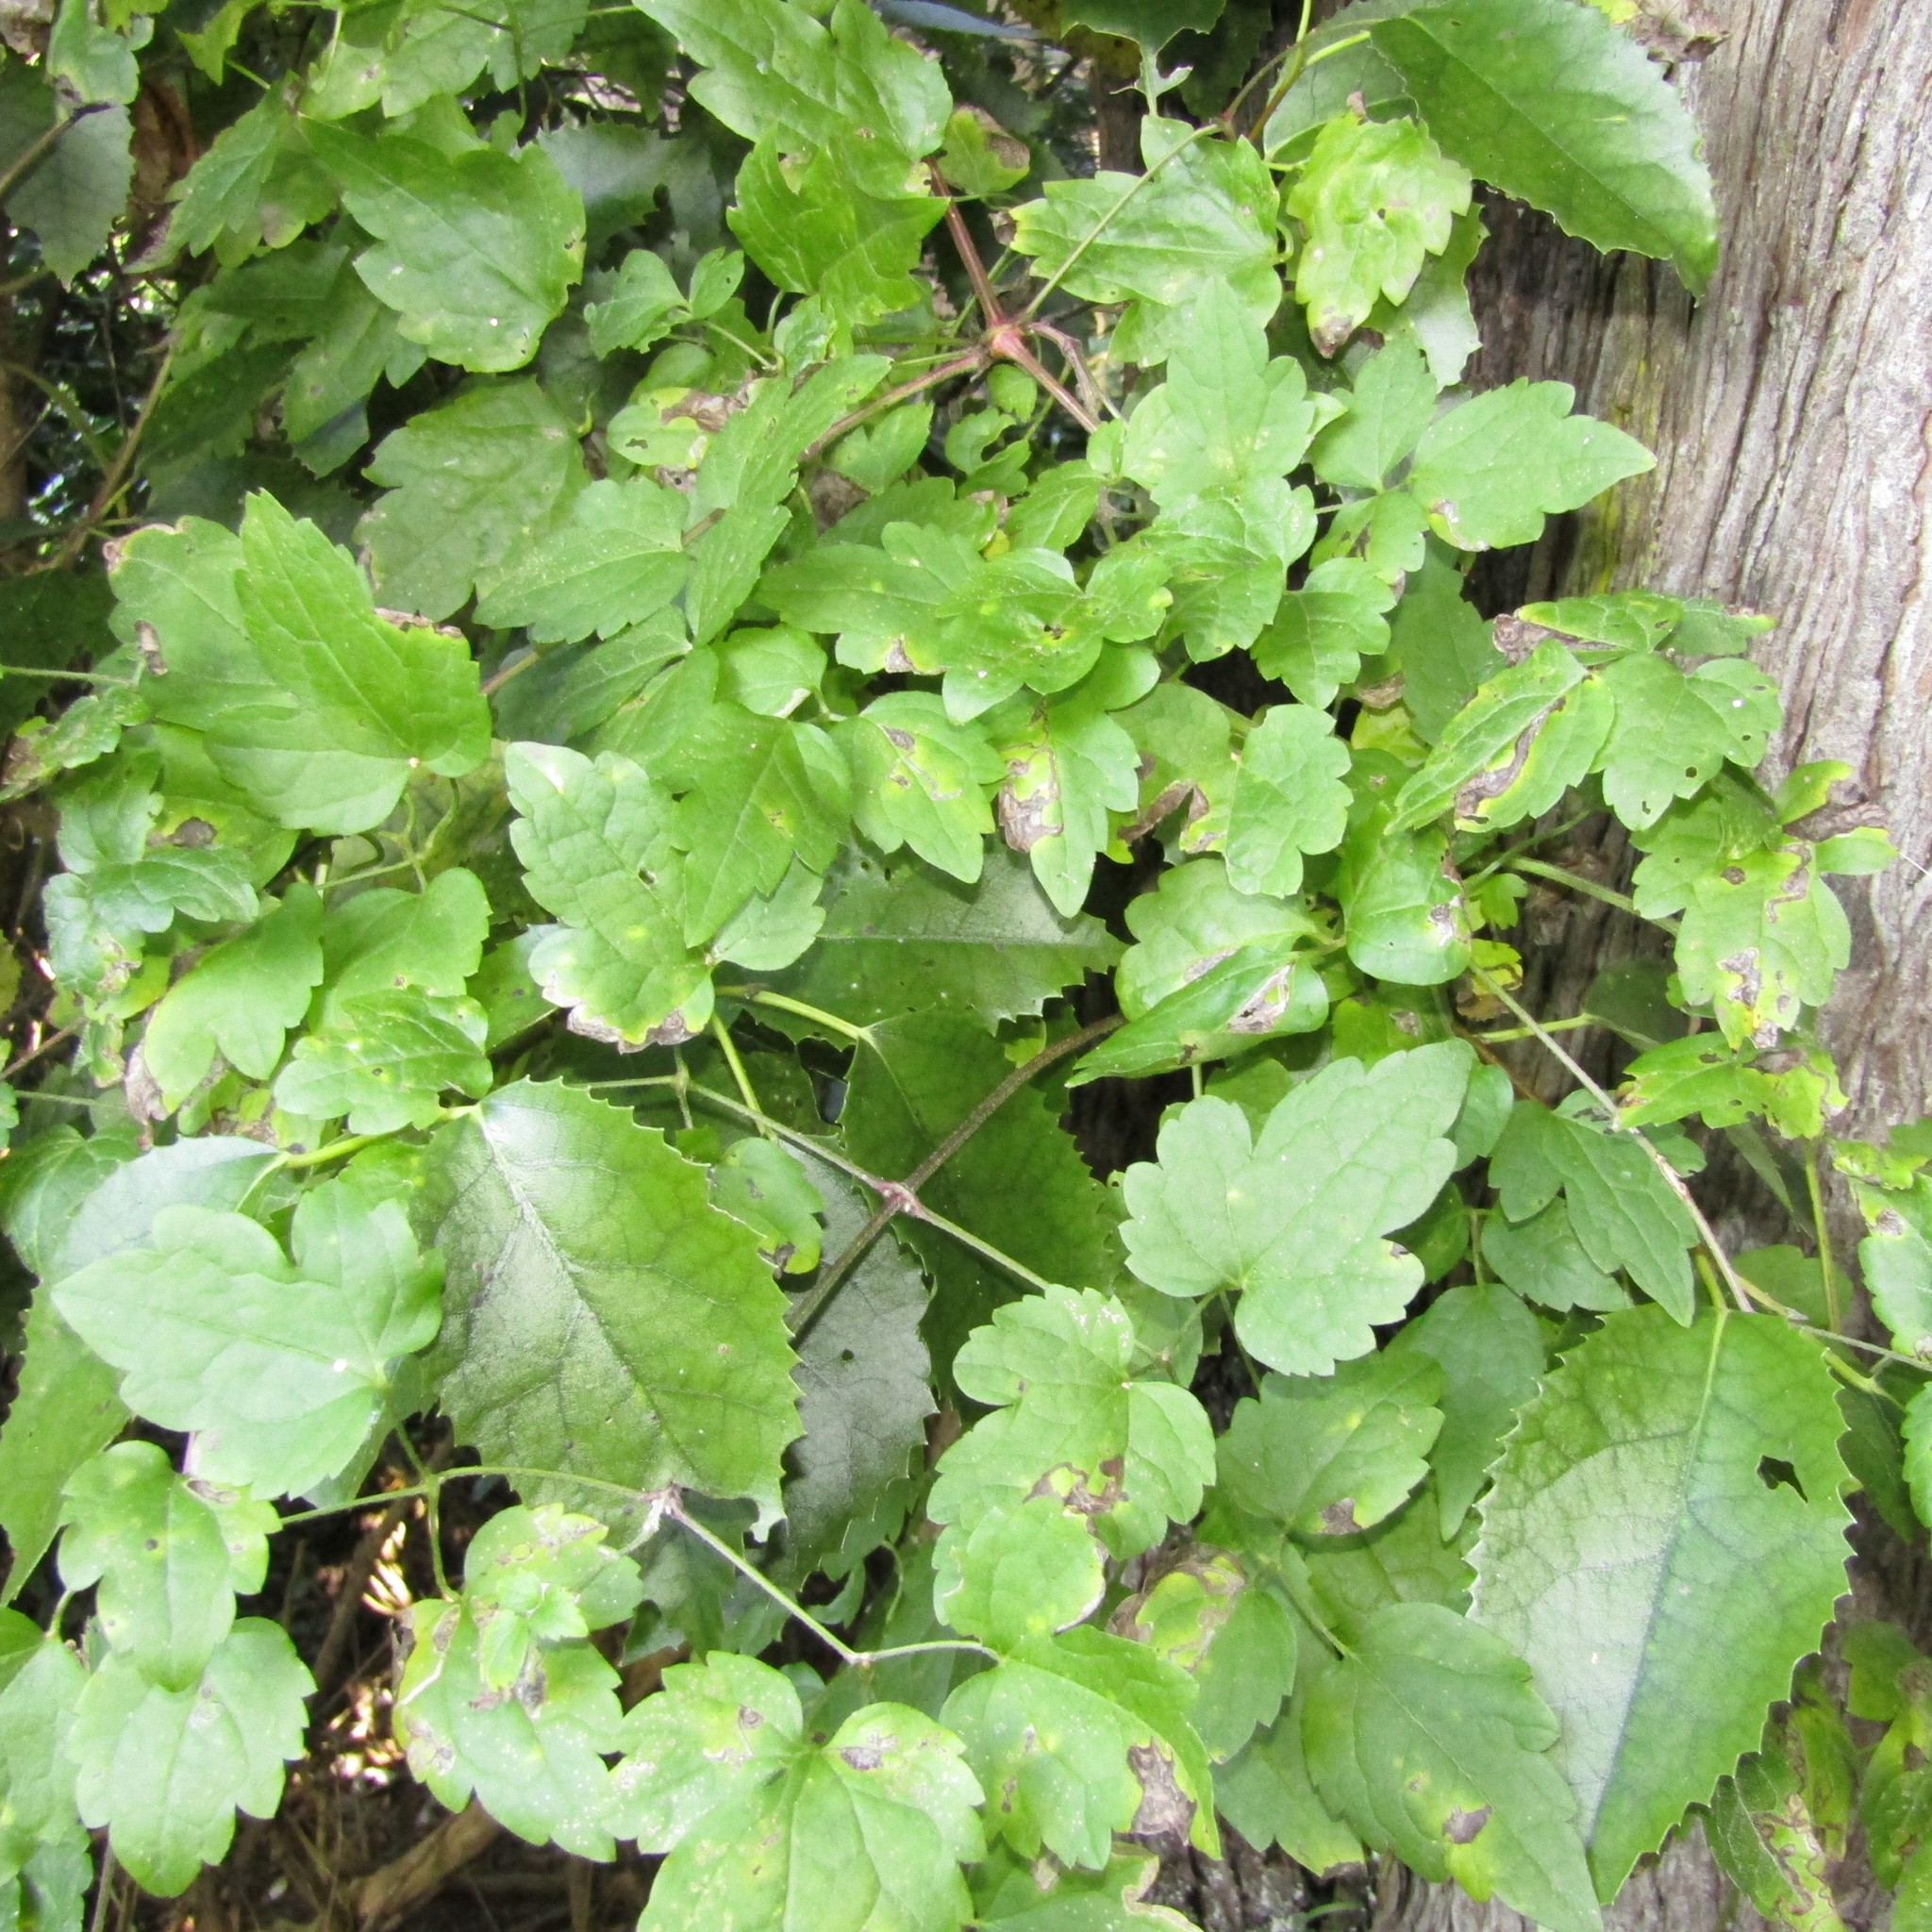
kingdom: Plantae
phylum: Tracheophyta
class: Magnoliopsida
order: Malvales
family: Malvaceae
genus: Hoheria
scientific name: Hoheria populnea
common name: Lacebark
